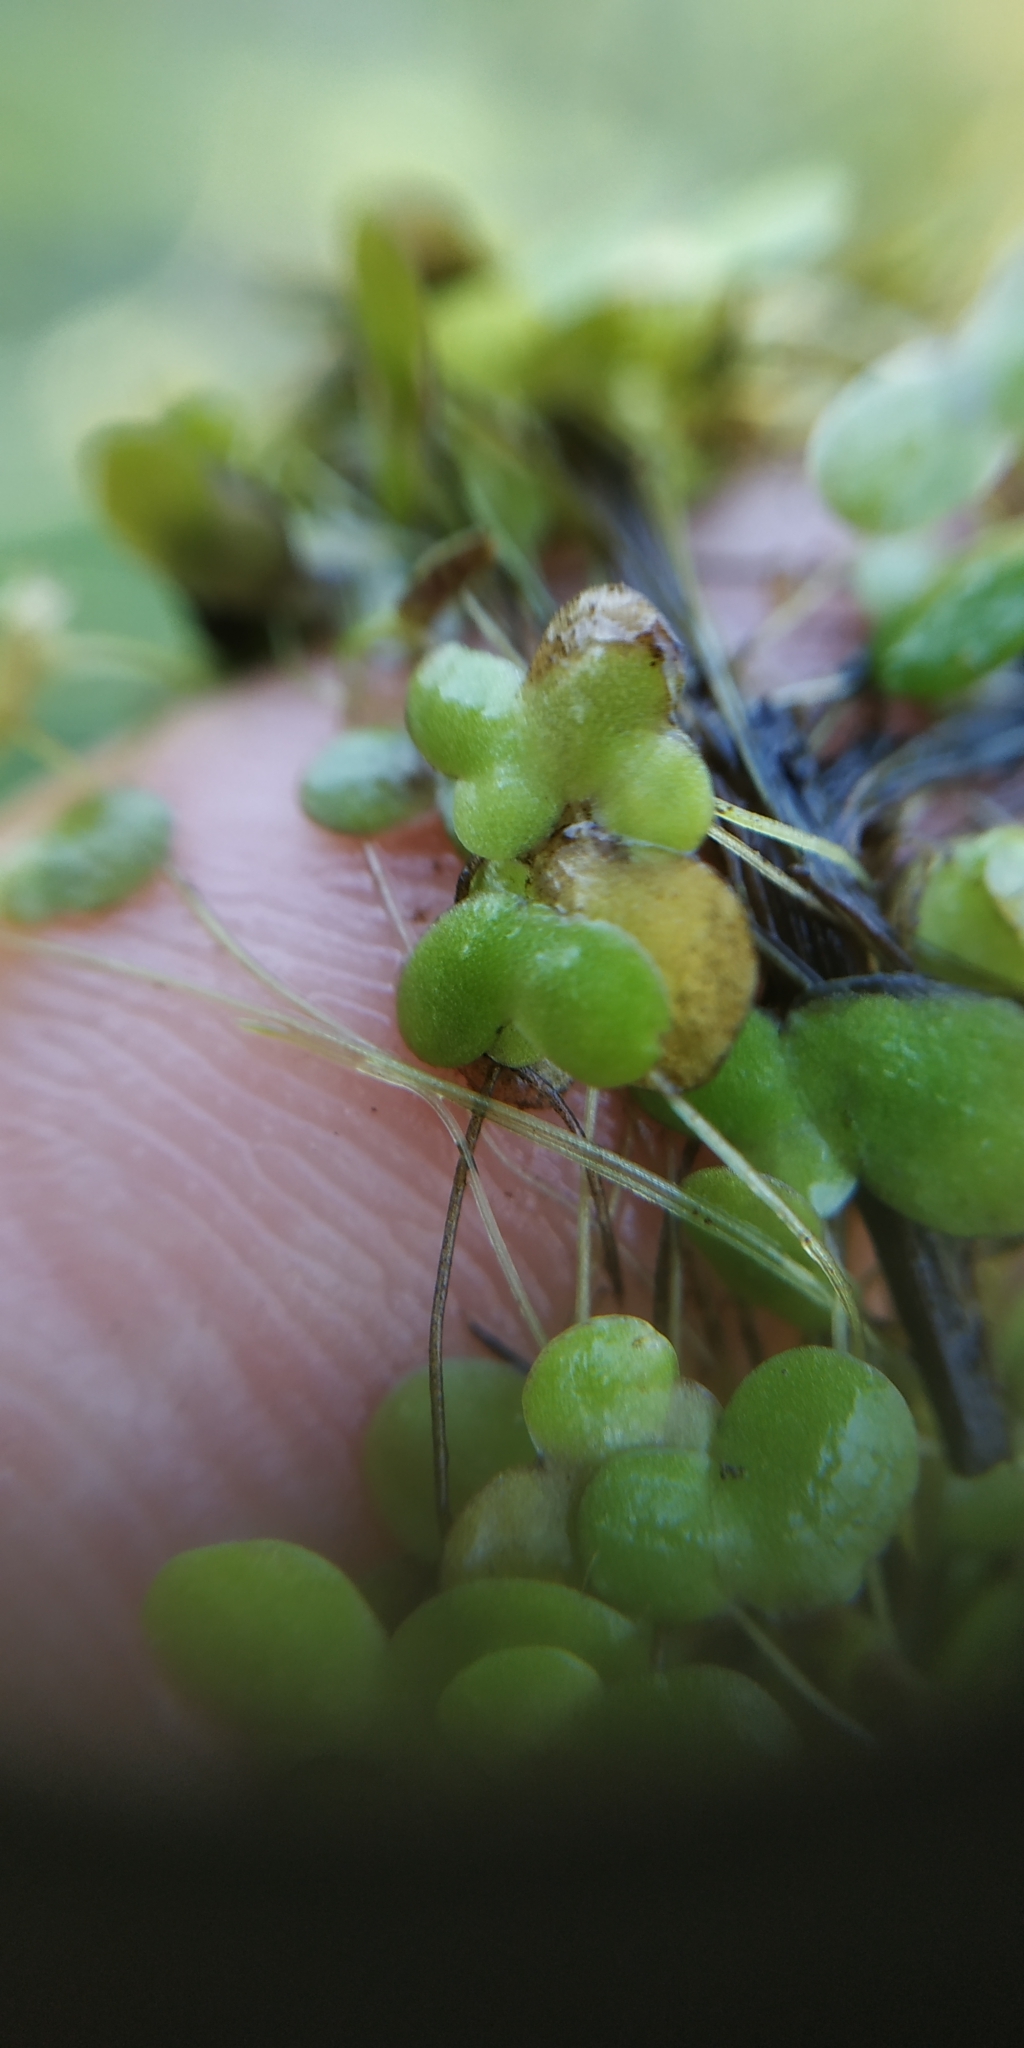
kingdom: Plantae
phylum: Tracheophyta
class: Liliopsida
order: Alismatales
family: Araceae
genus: Lemna
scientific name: Lemna gibba
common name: Fat duckweed
